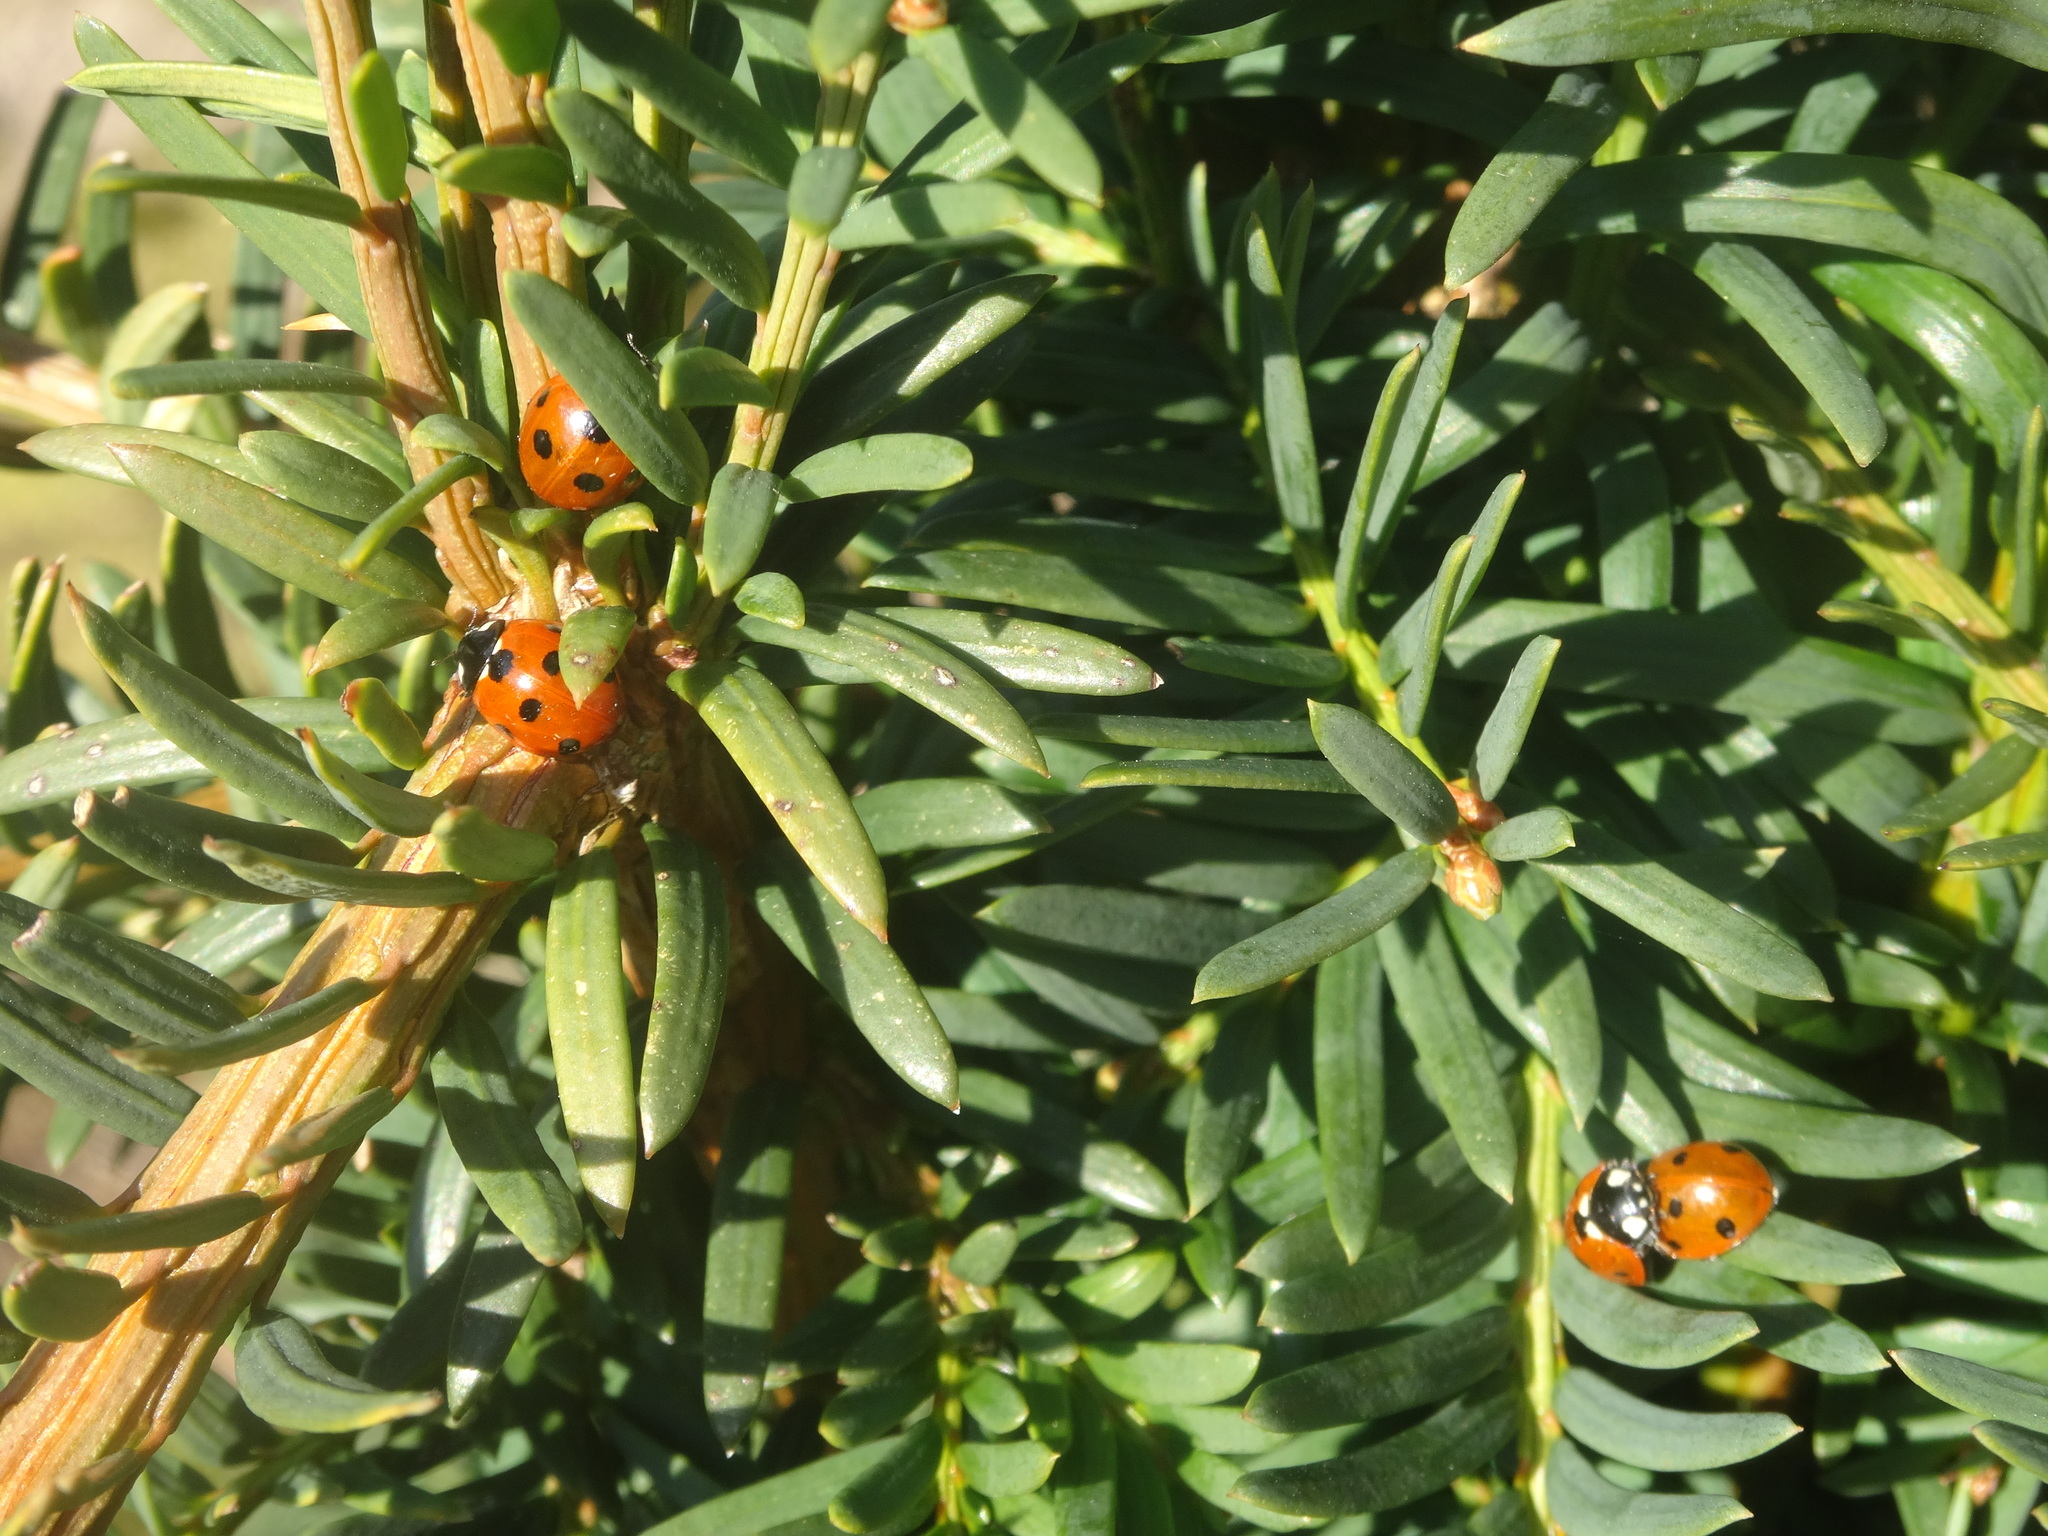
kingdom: Animalia
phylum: Arthropoda
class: Insecta
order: Coleoptera
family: Coccinellidae
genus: Coccinella
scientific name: Coccinella septempunctata
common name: Sevenspotted lady beetle
